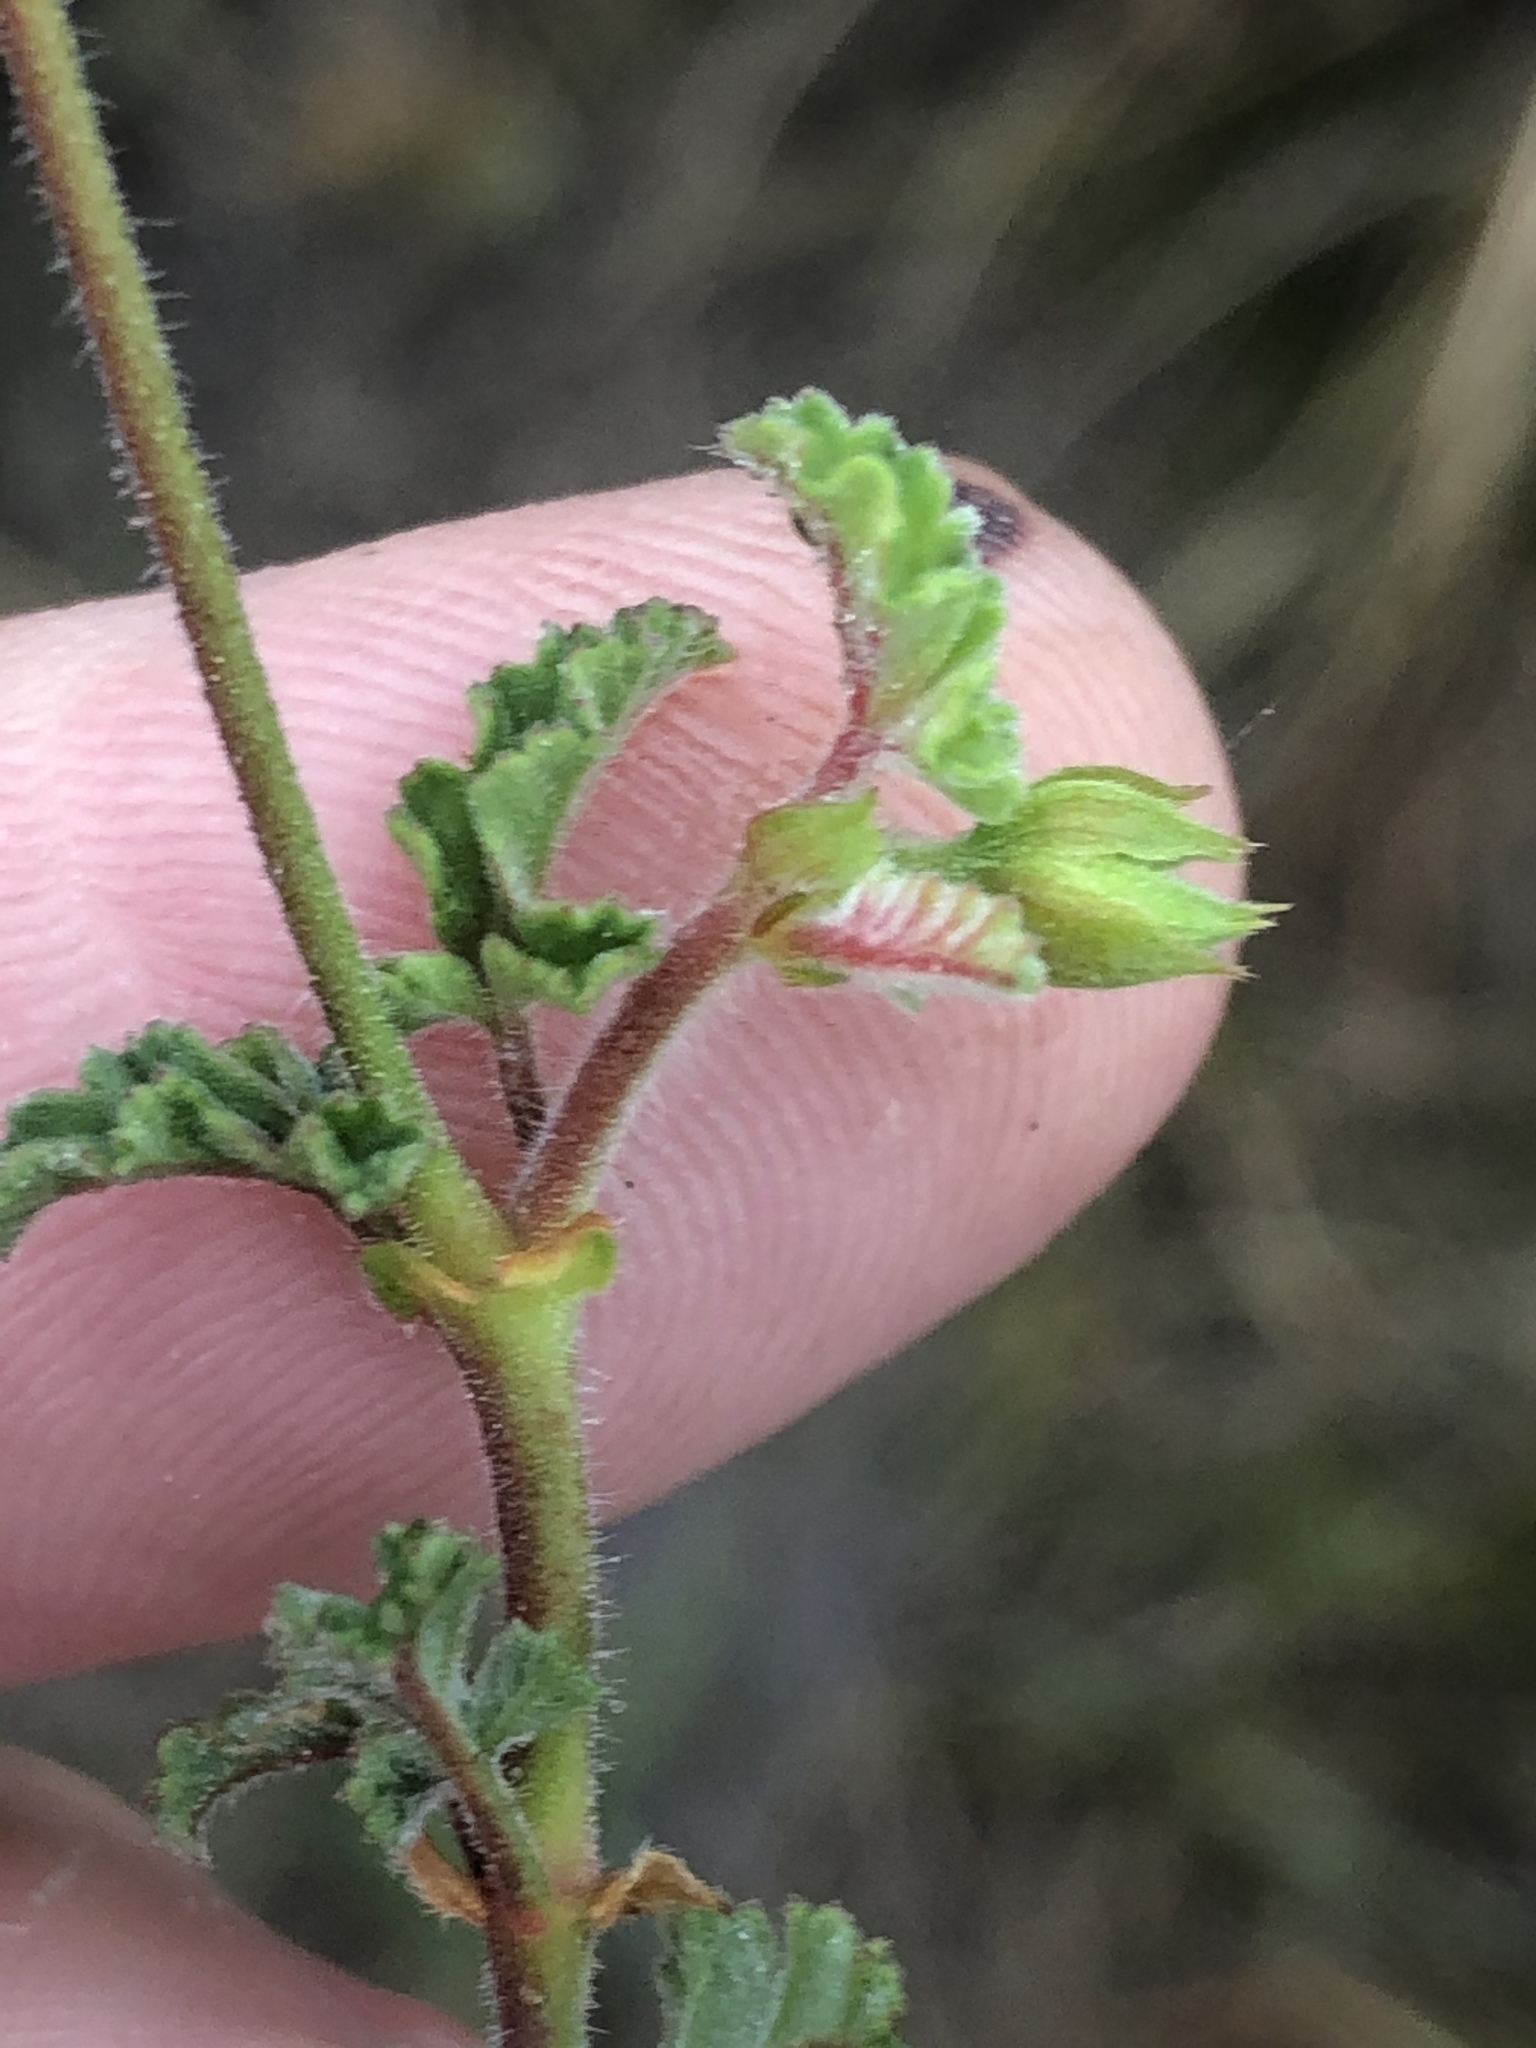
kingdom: Plantae
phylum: Tracheophyta
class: Magnoliopsida
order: Geraniales
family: Geraniaceae
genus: Pelargonium
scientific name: Pelargonium candicans
